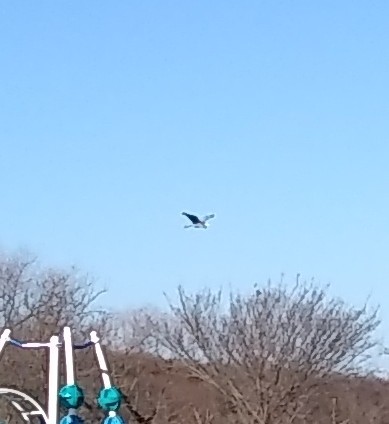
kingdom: Animalia
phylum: Chordata
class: Aves
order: Pelecaniformes
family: Ardeidae
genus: Ardea
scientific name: Ardea herodias
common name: Great blue heron
